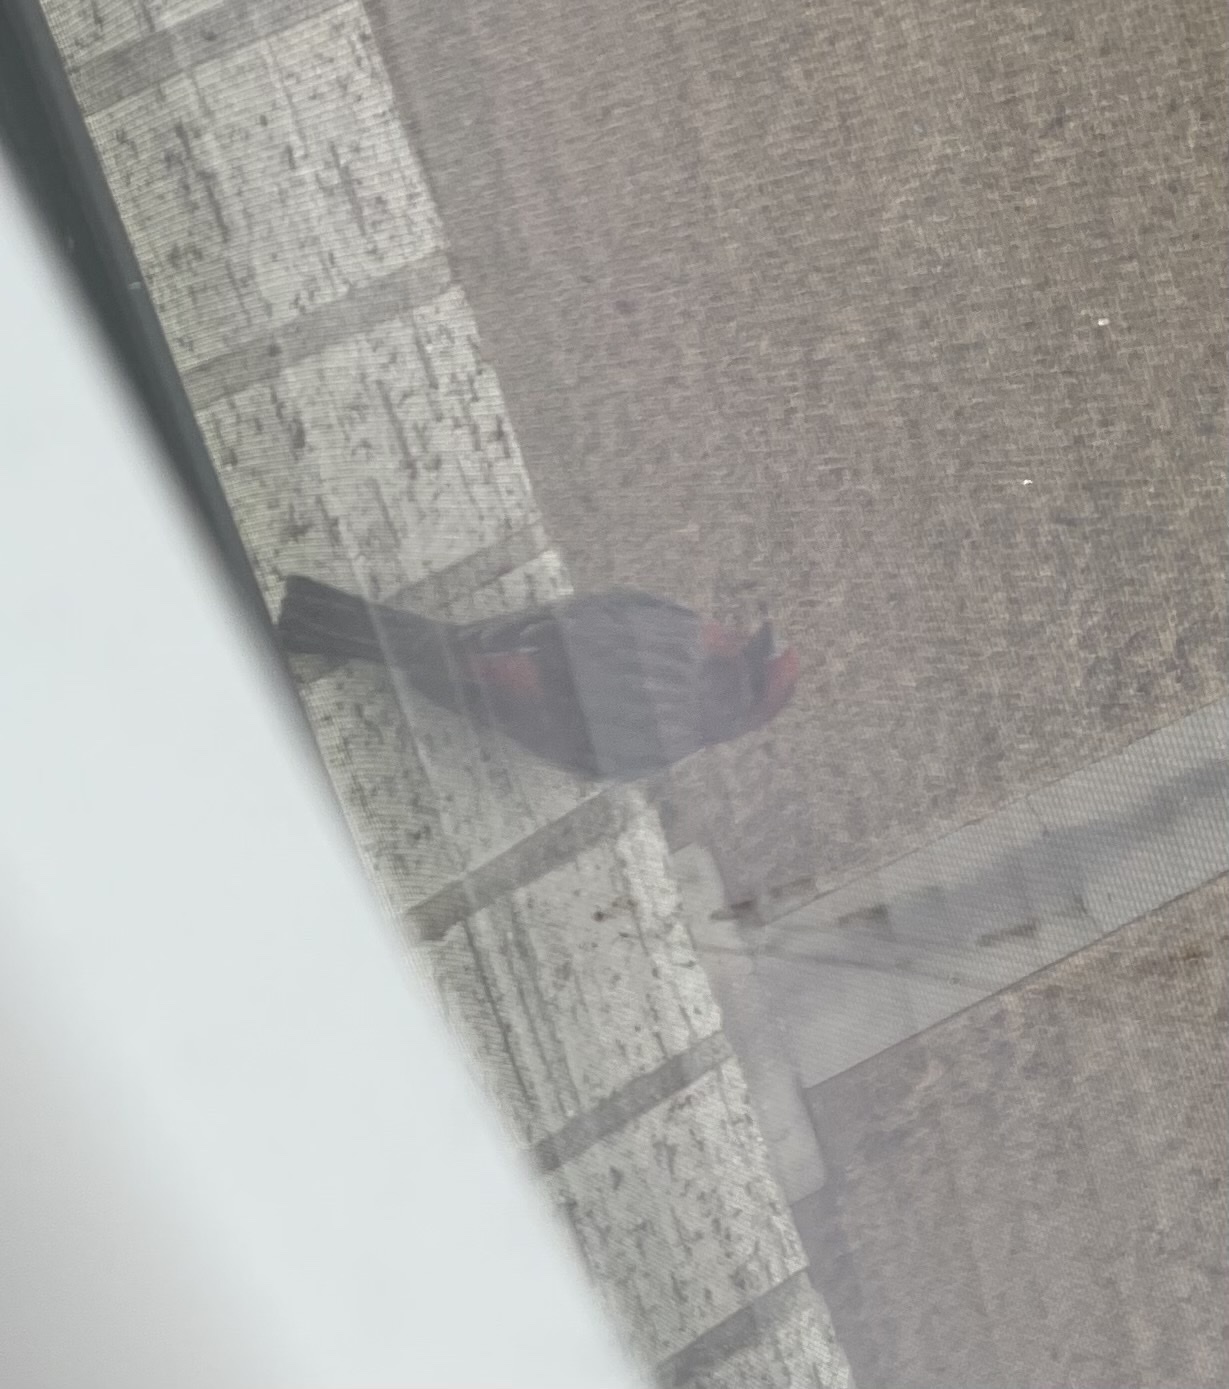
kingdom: Animalia
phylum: Chordata
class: Aves
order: Passeriformes
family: Fringillidae
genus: Haemorhous
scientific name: Haemorhous mexicanus
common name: House finch
